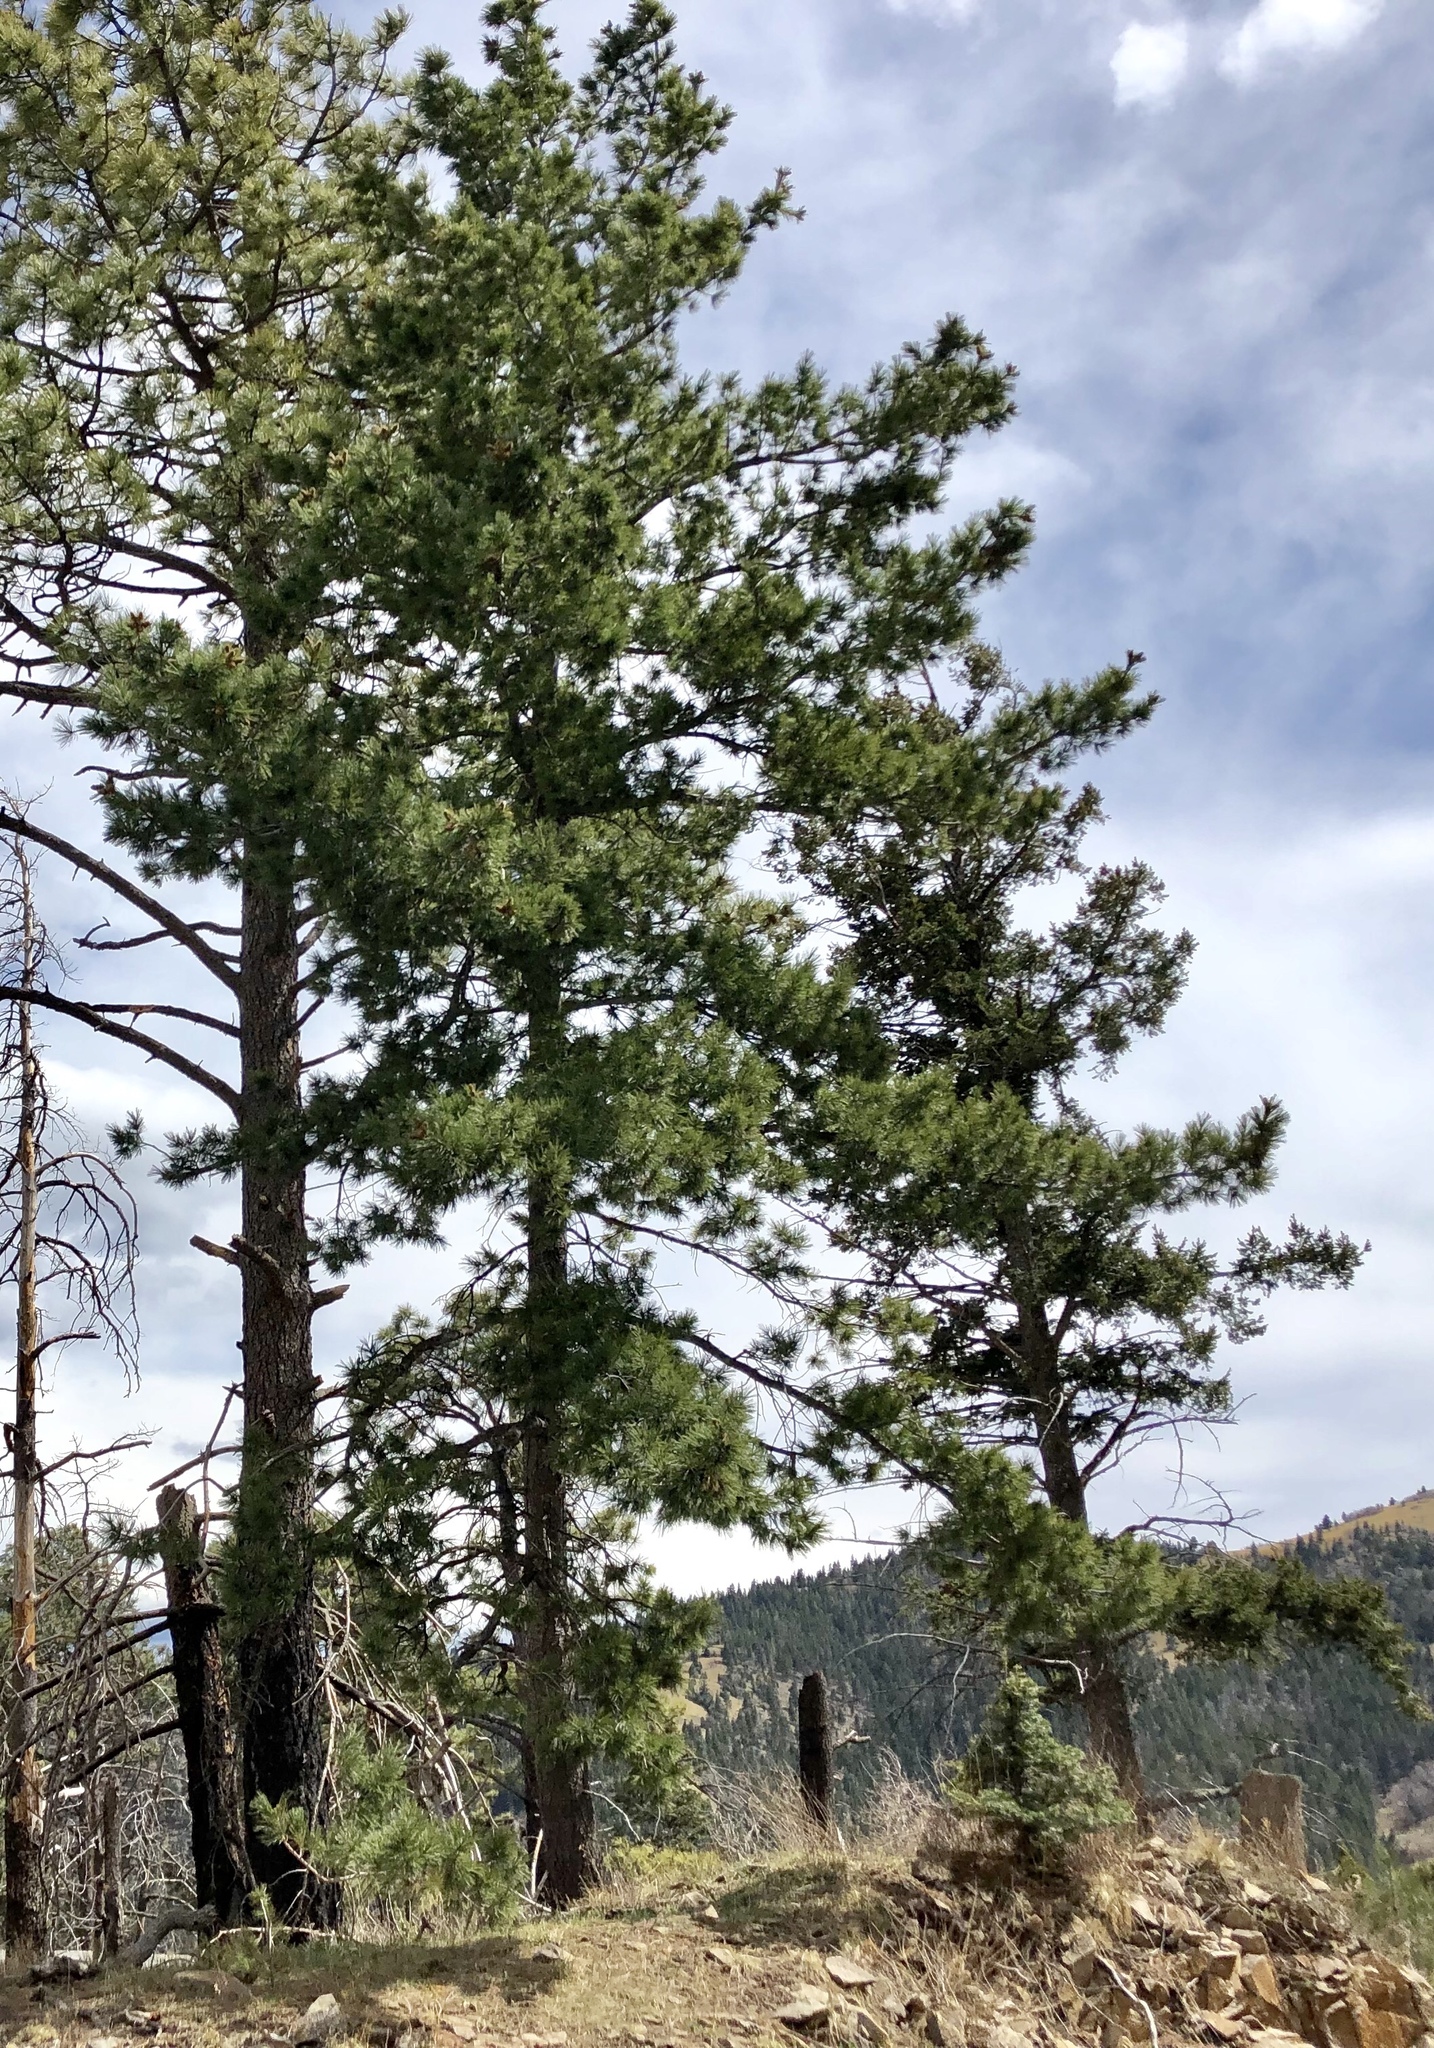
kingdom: Plantae
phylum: Tracheophyta
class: Pinopsida
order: Pinales
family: Pinaceae
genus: Pinus
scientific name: Pinus ponderosa
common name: Western yellow-pine
